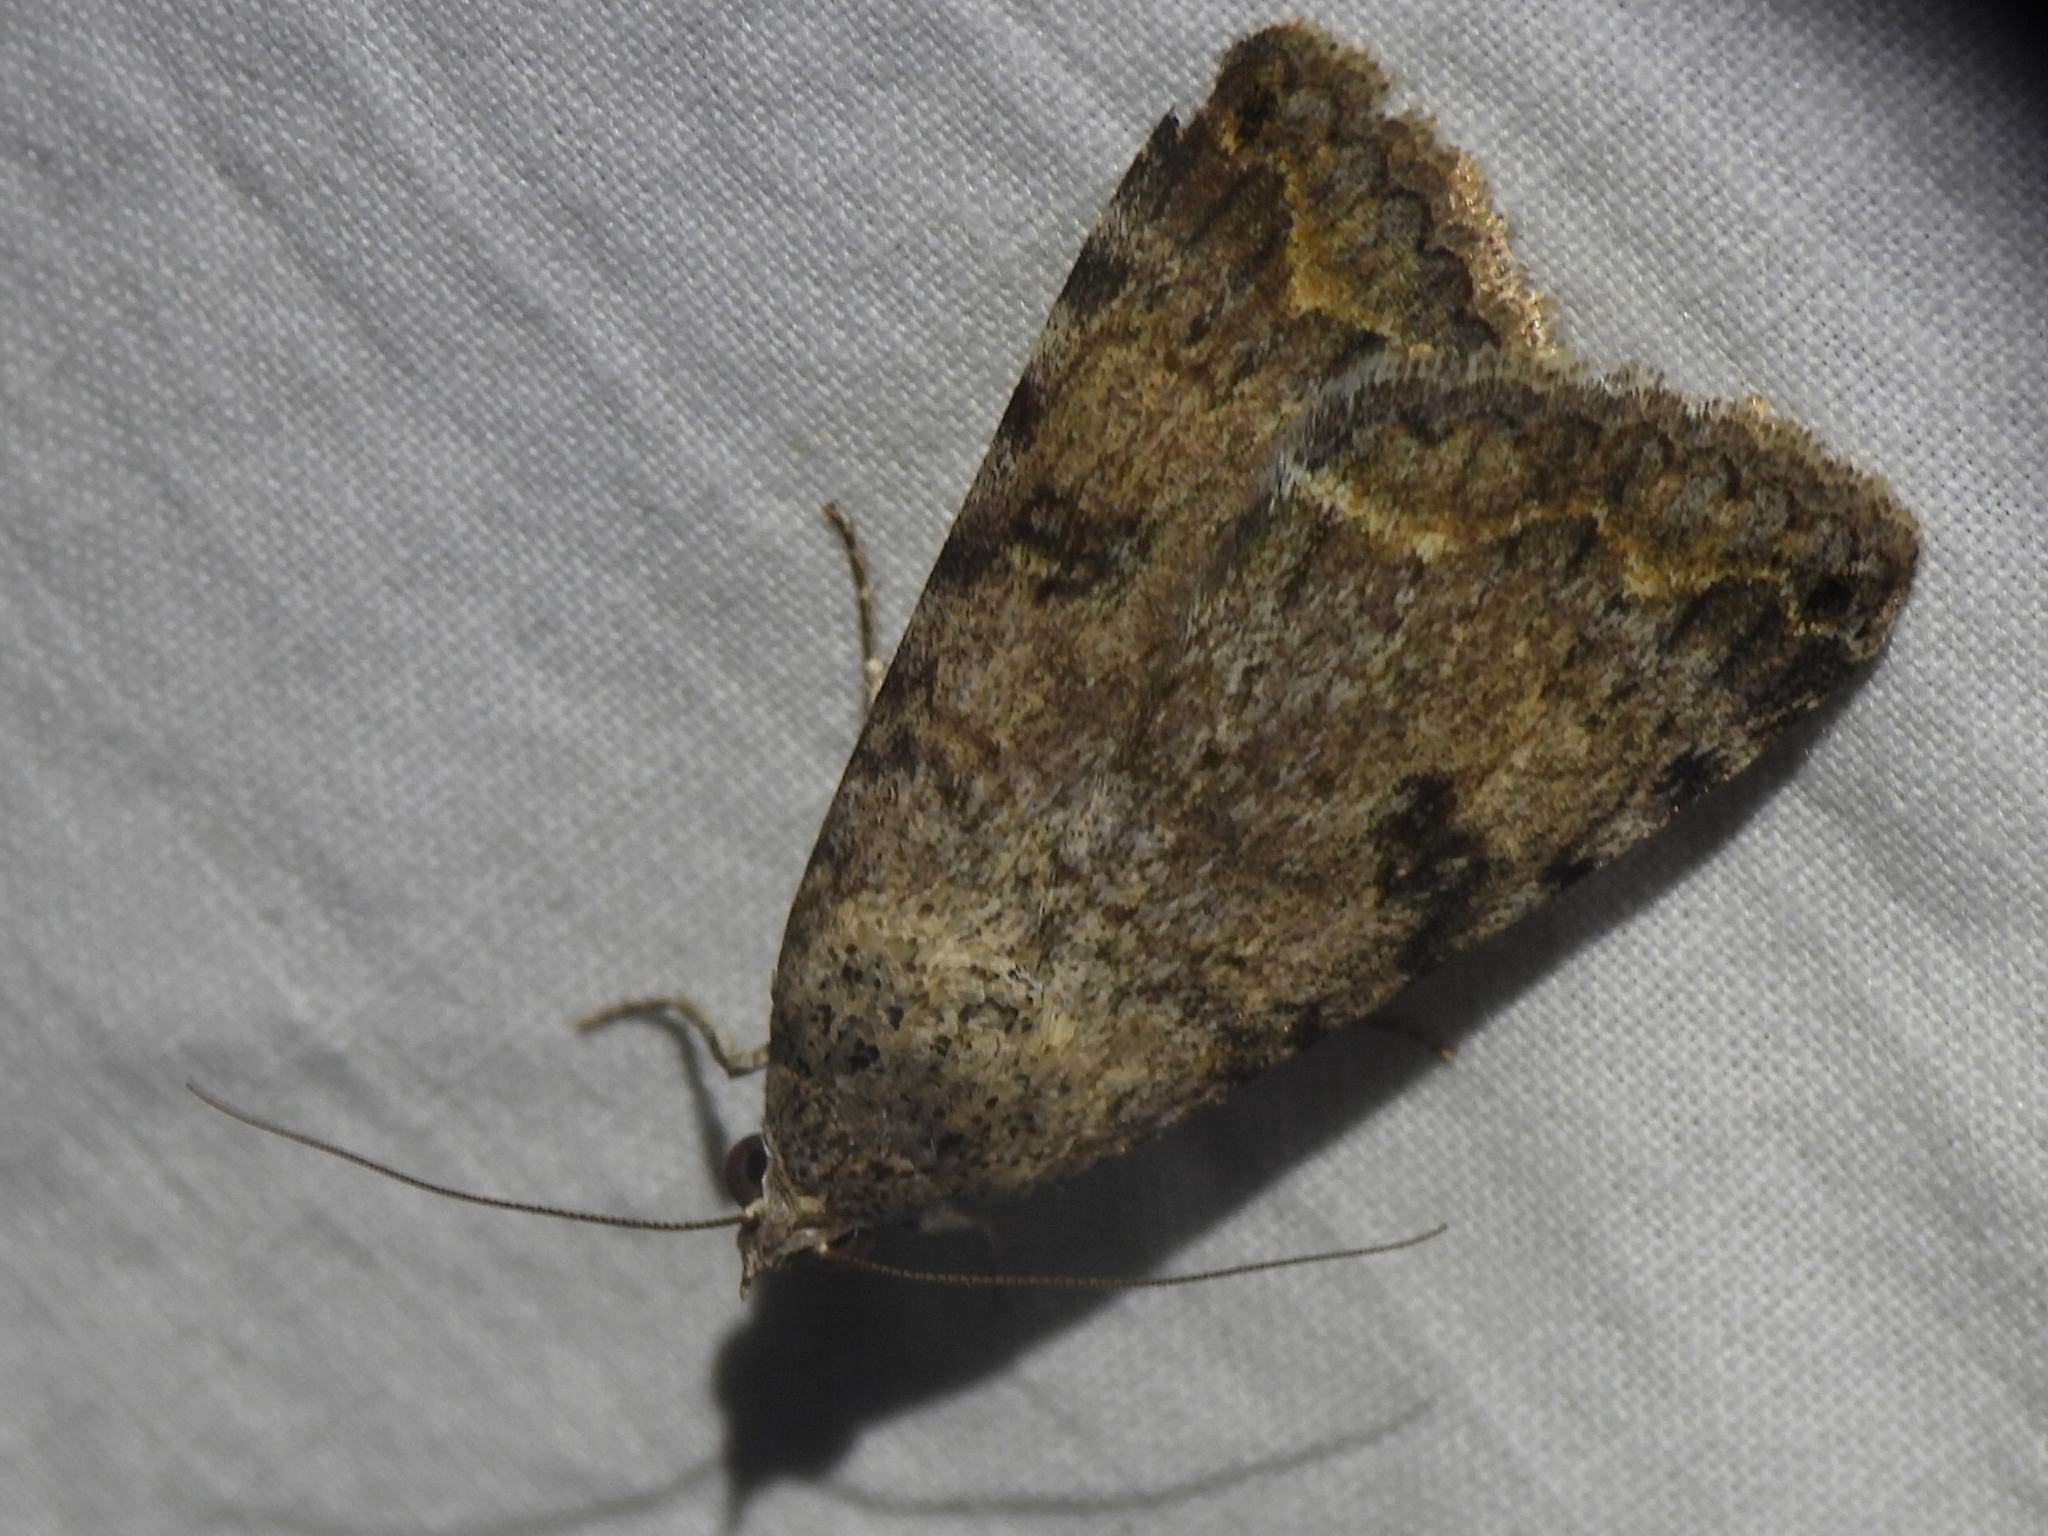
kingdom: Animalia
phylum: Arthropoda
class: Insecta
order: Lepidoptera
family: Erebidae
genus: Bulia
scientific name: Bulia deducta
